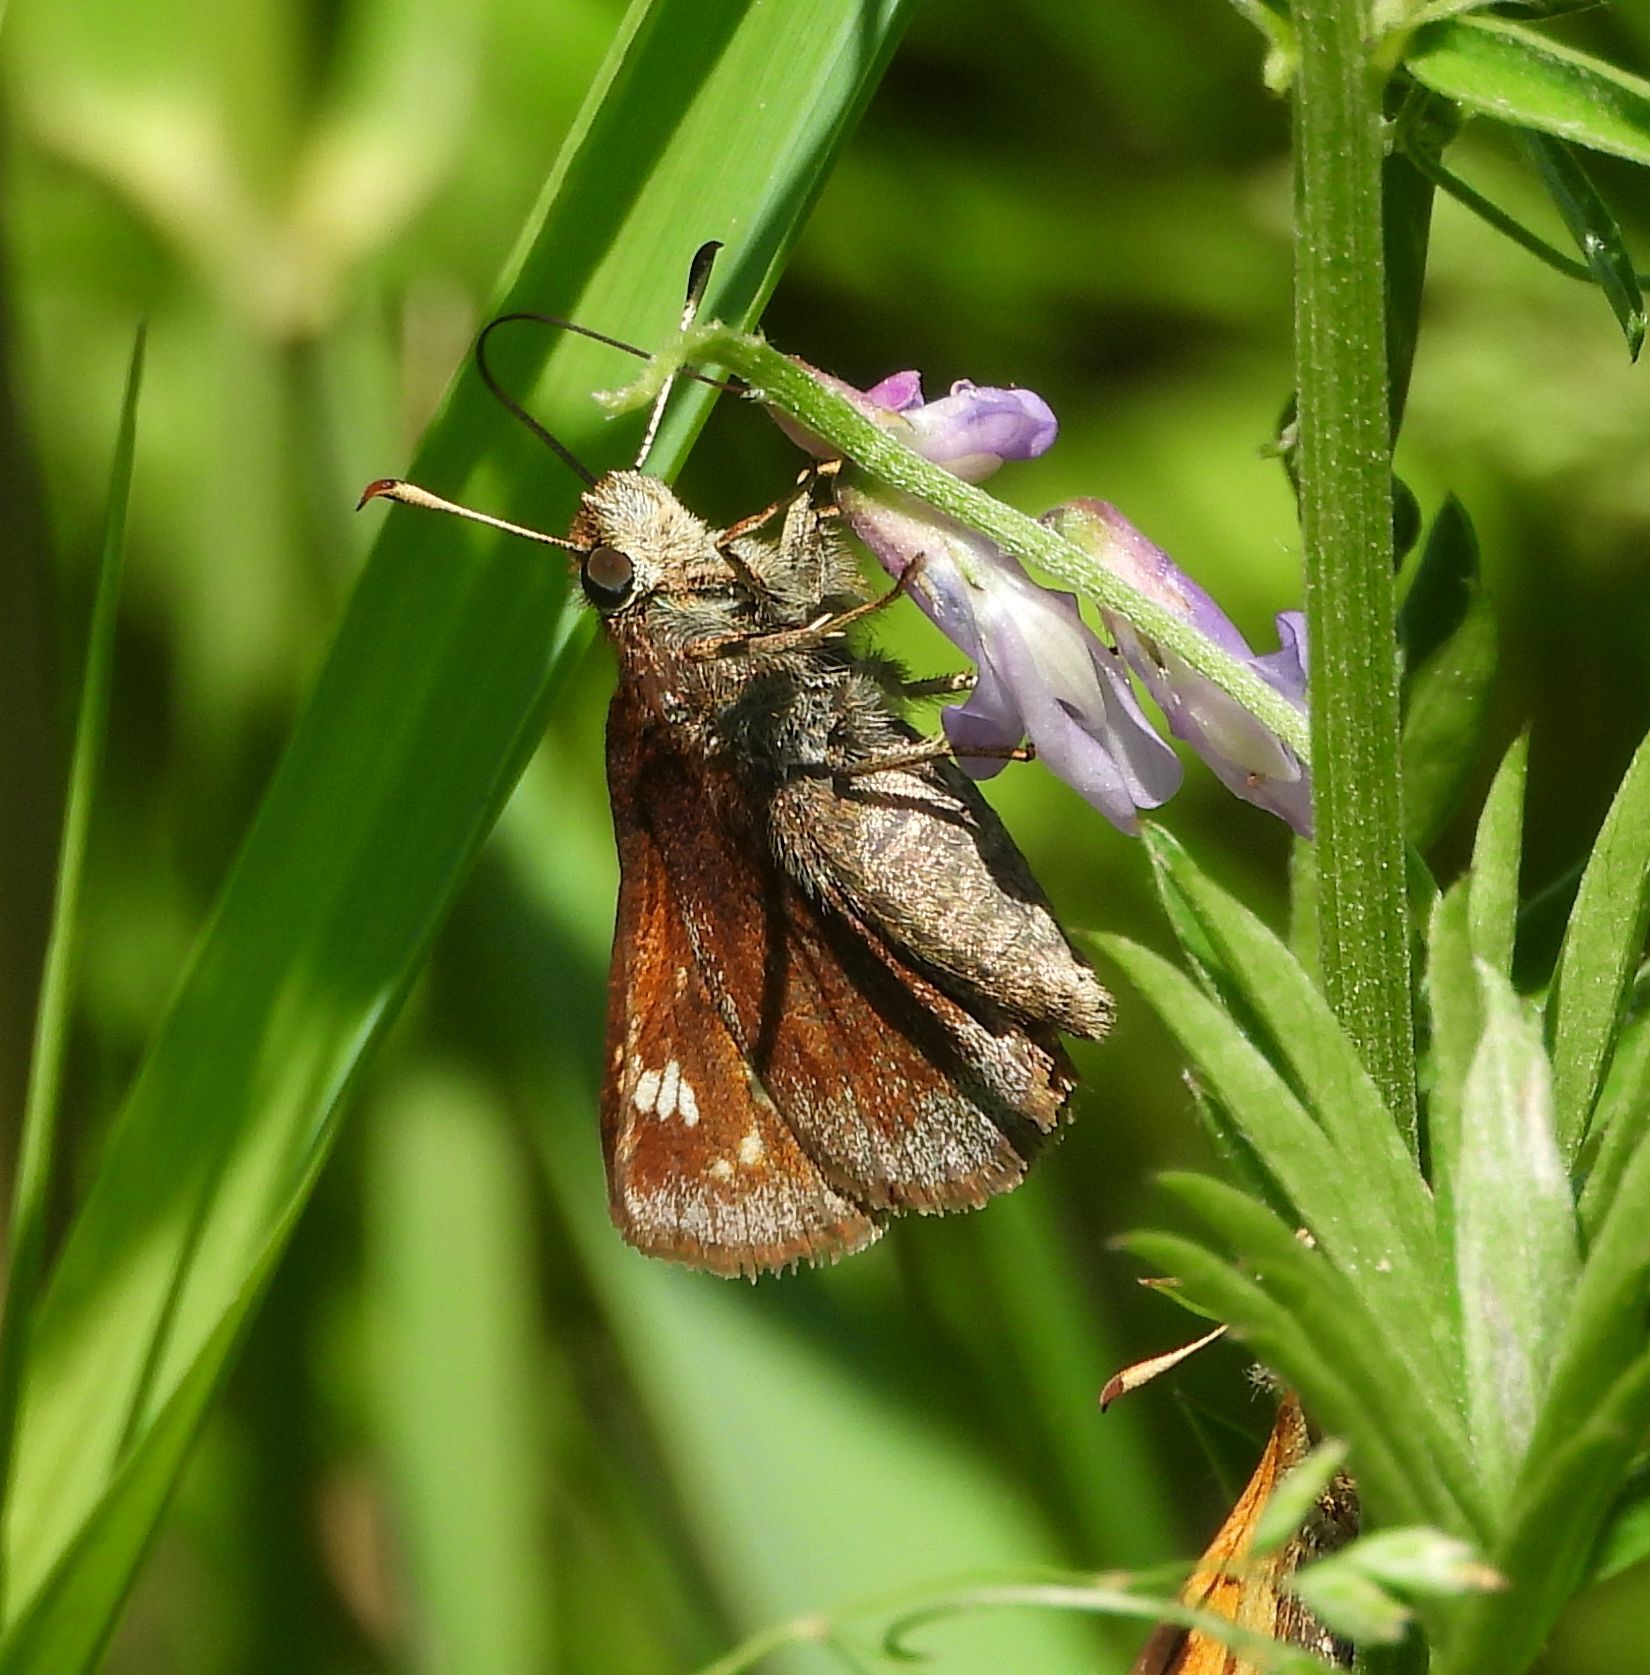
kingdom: Animalia
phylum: Arthropoda
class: Insecta
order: Lepidoptera
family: Hesperiidae
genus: Lon
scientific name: Lon hobomok
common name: Hobomok skipper
